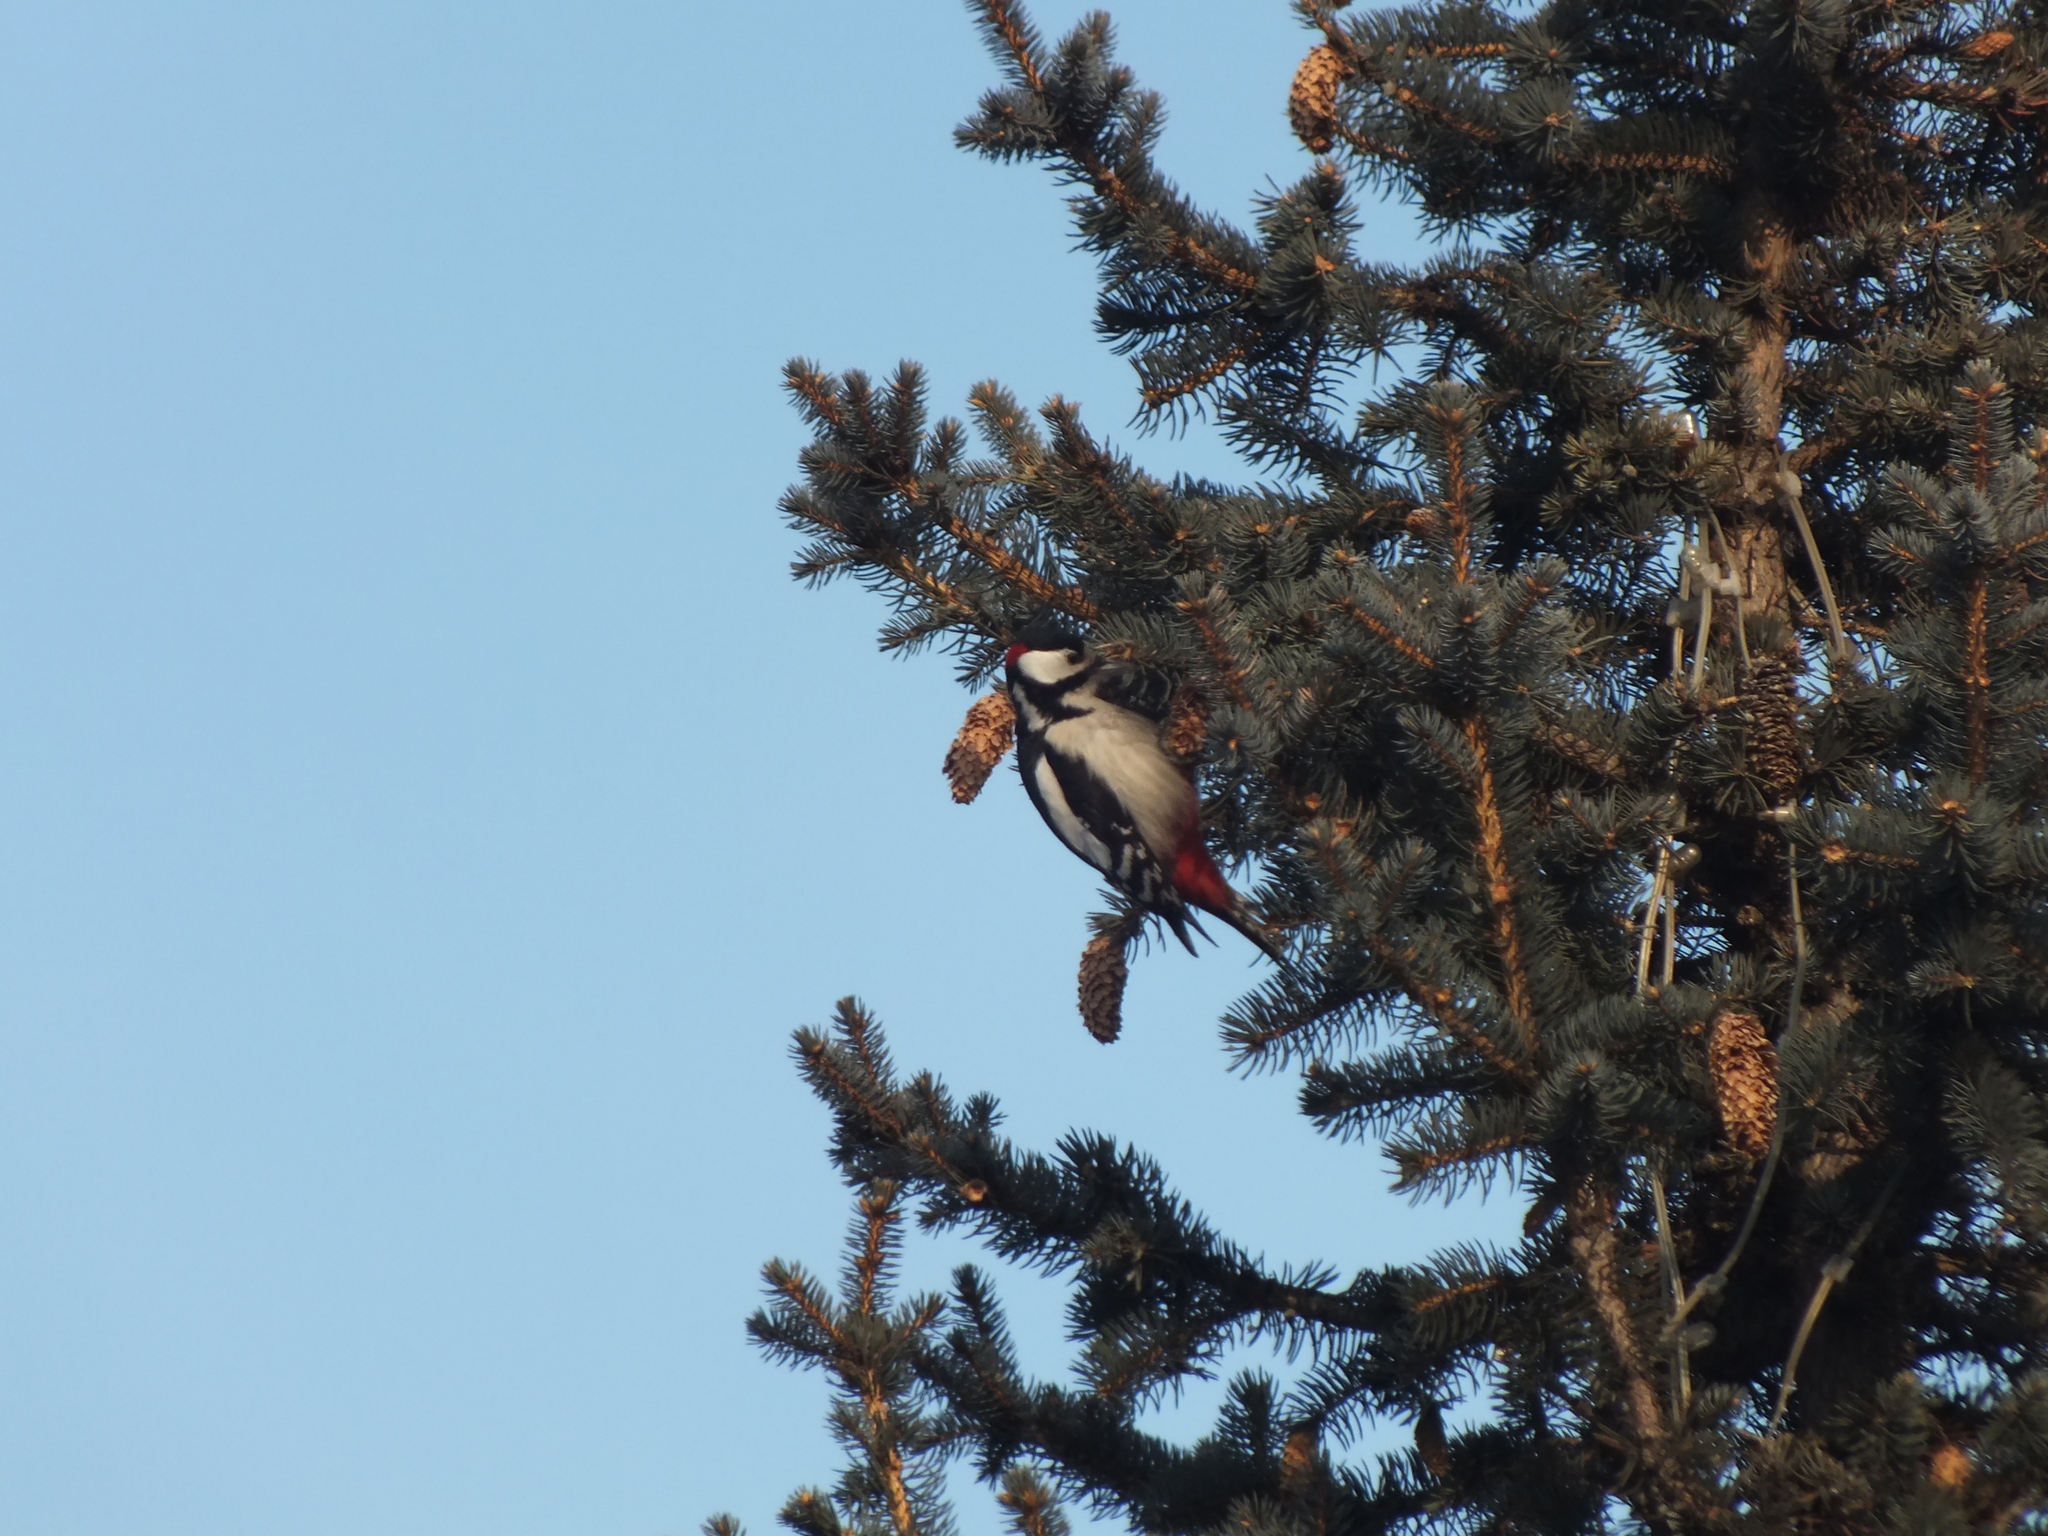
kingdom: Animalia
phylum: Chordata
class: Aves
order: Piciformes
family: Picidae
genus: Dendrocopos
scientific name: Dendrocopos major
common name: Great spotted woodpecker
